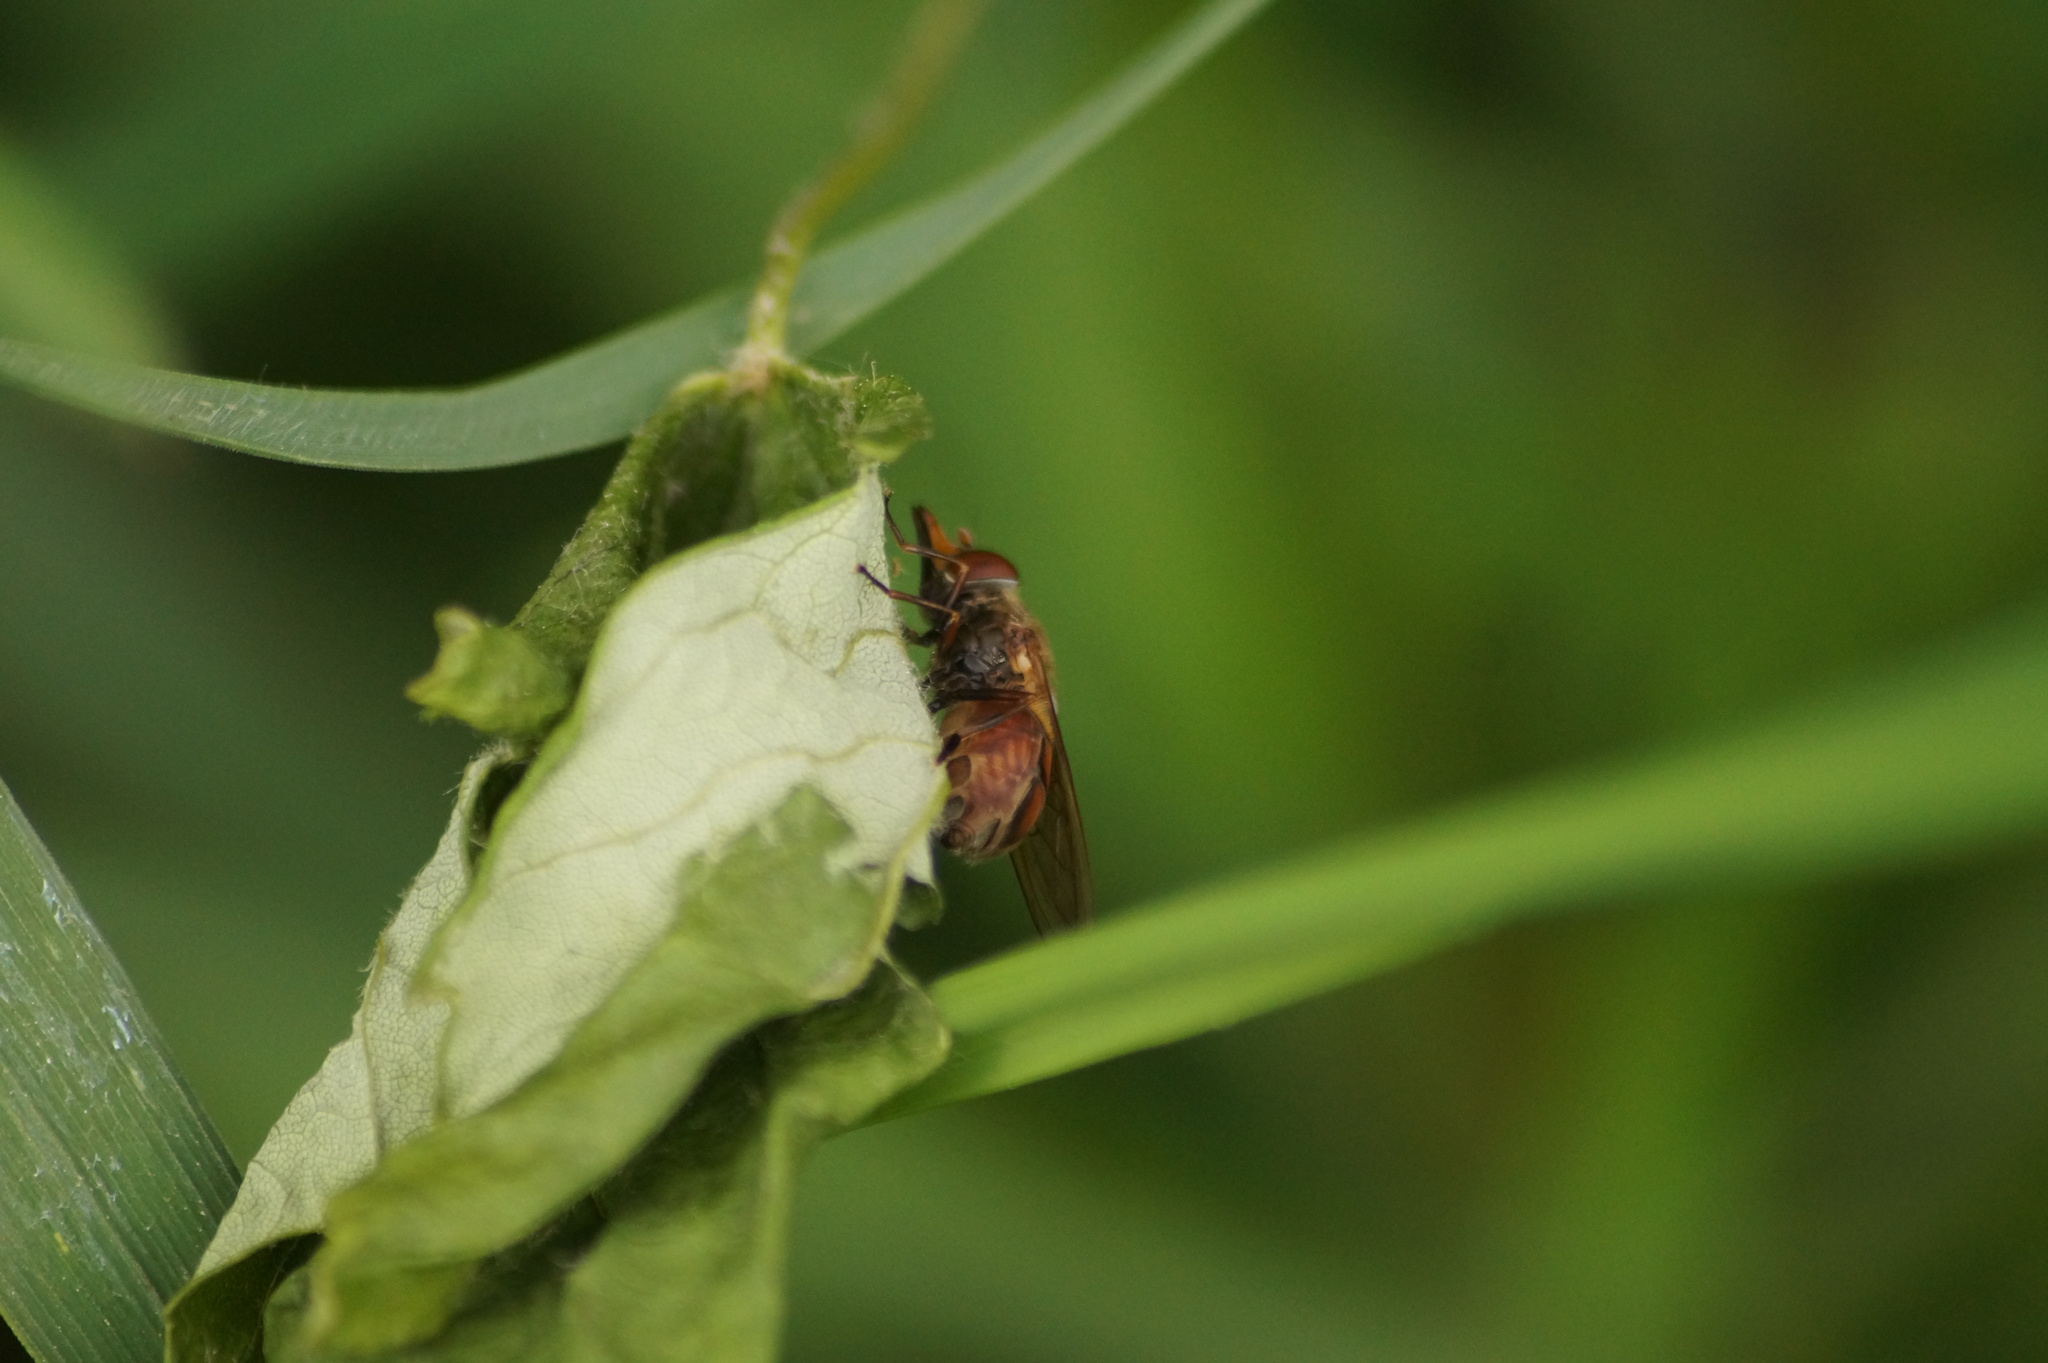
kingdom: Animalia
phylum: Arthropoda
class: Insecta
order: Diptera
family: Syrphidae
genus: Rhingia
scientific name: Rhingia campestris
